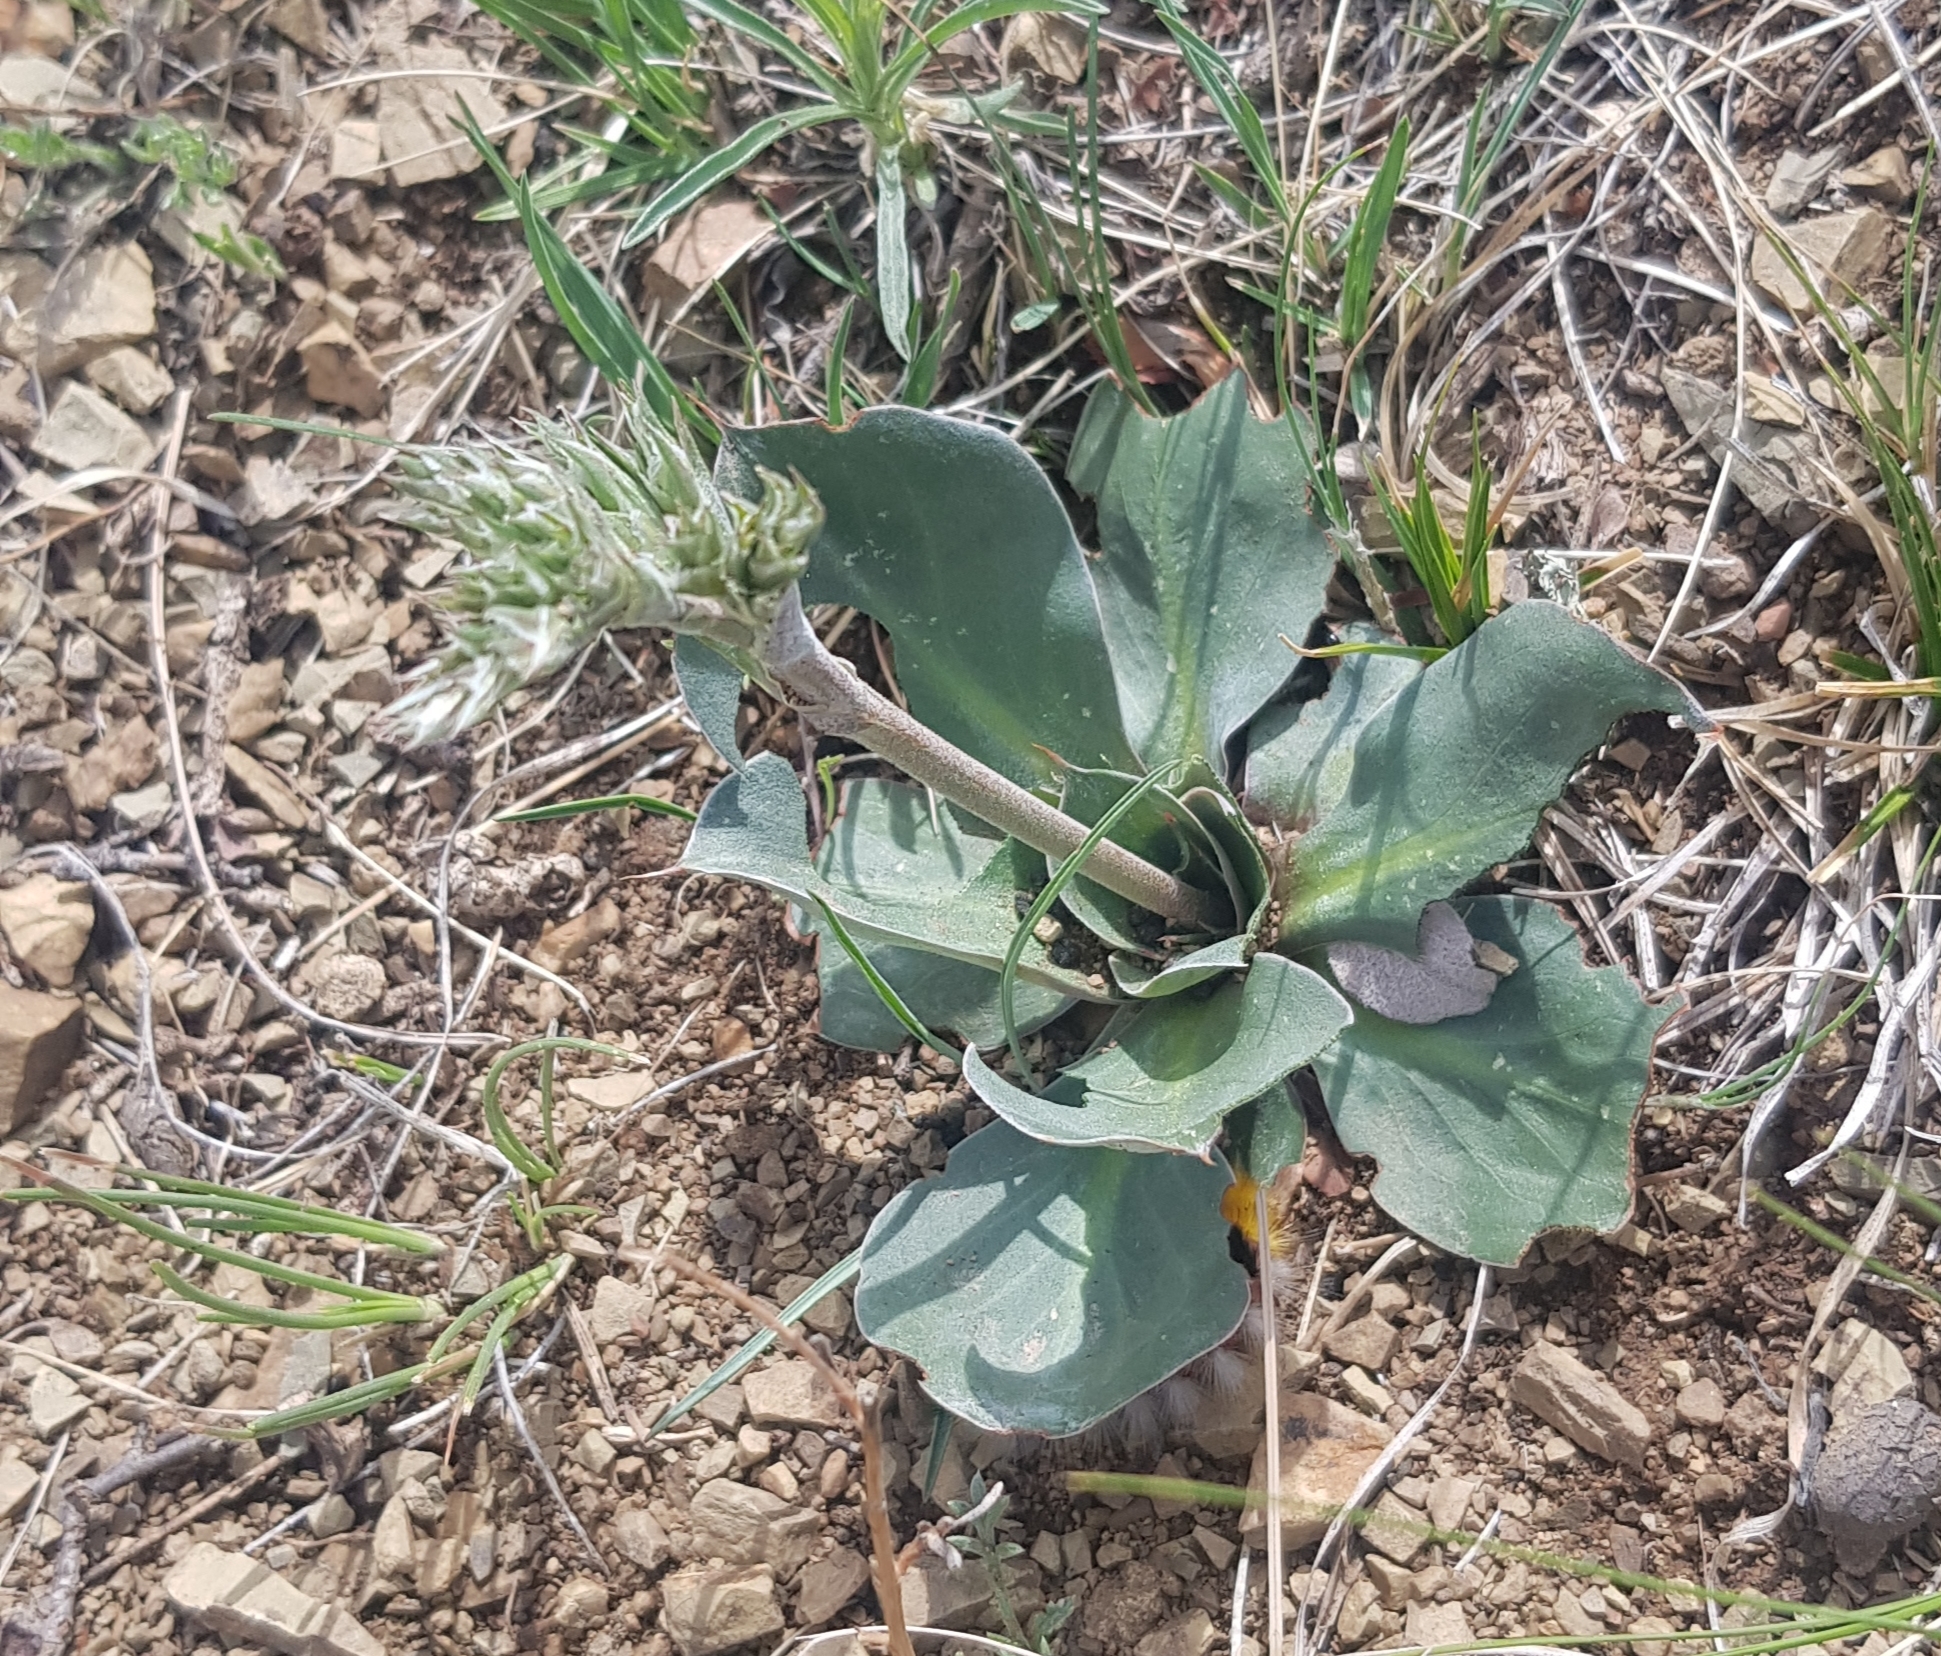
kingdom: Plantae
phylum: Tracheophyta
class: Magnoliopsida
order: Caryophyllales
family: Plumbaginaceae
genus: Goniolimon
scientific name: Goniolimon speciosum
